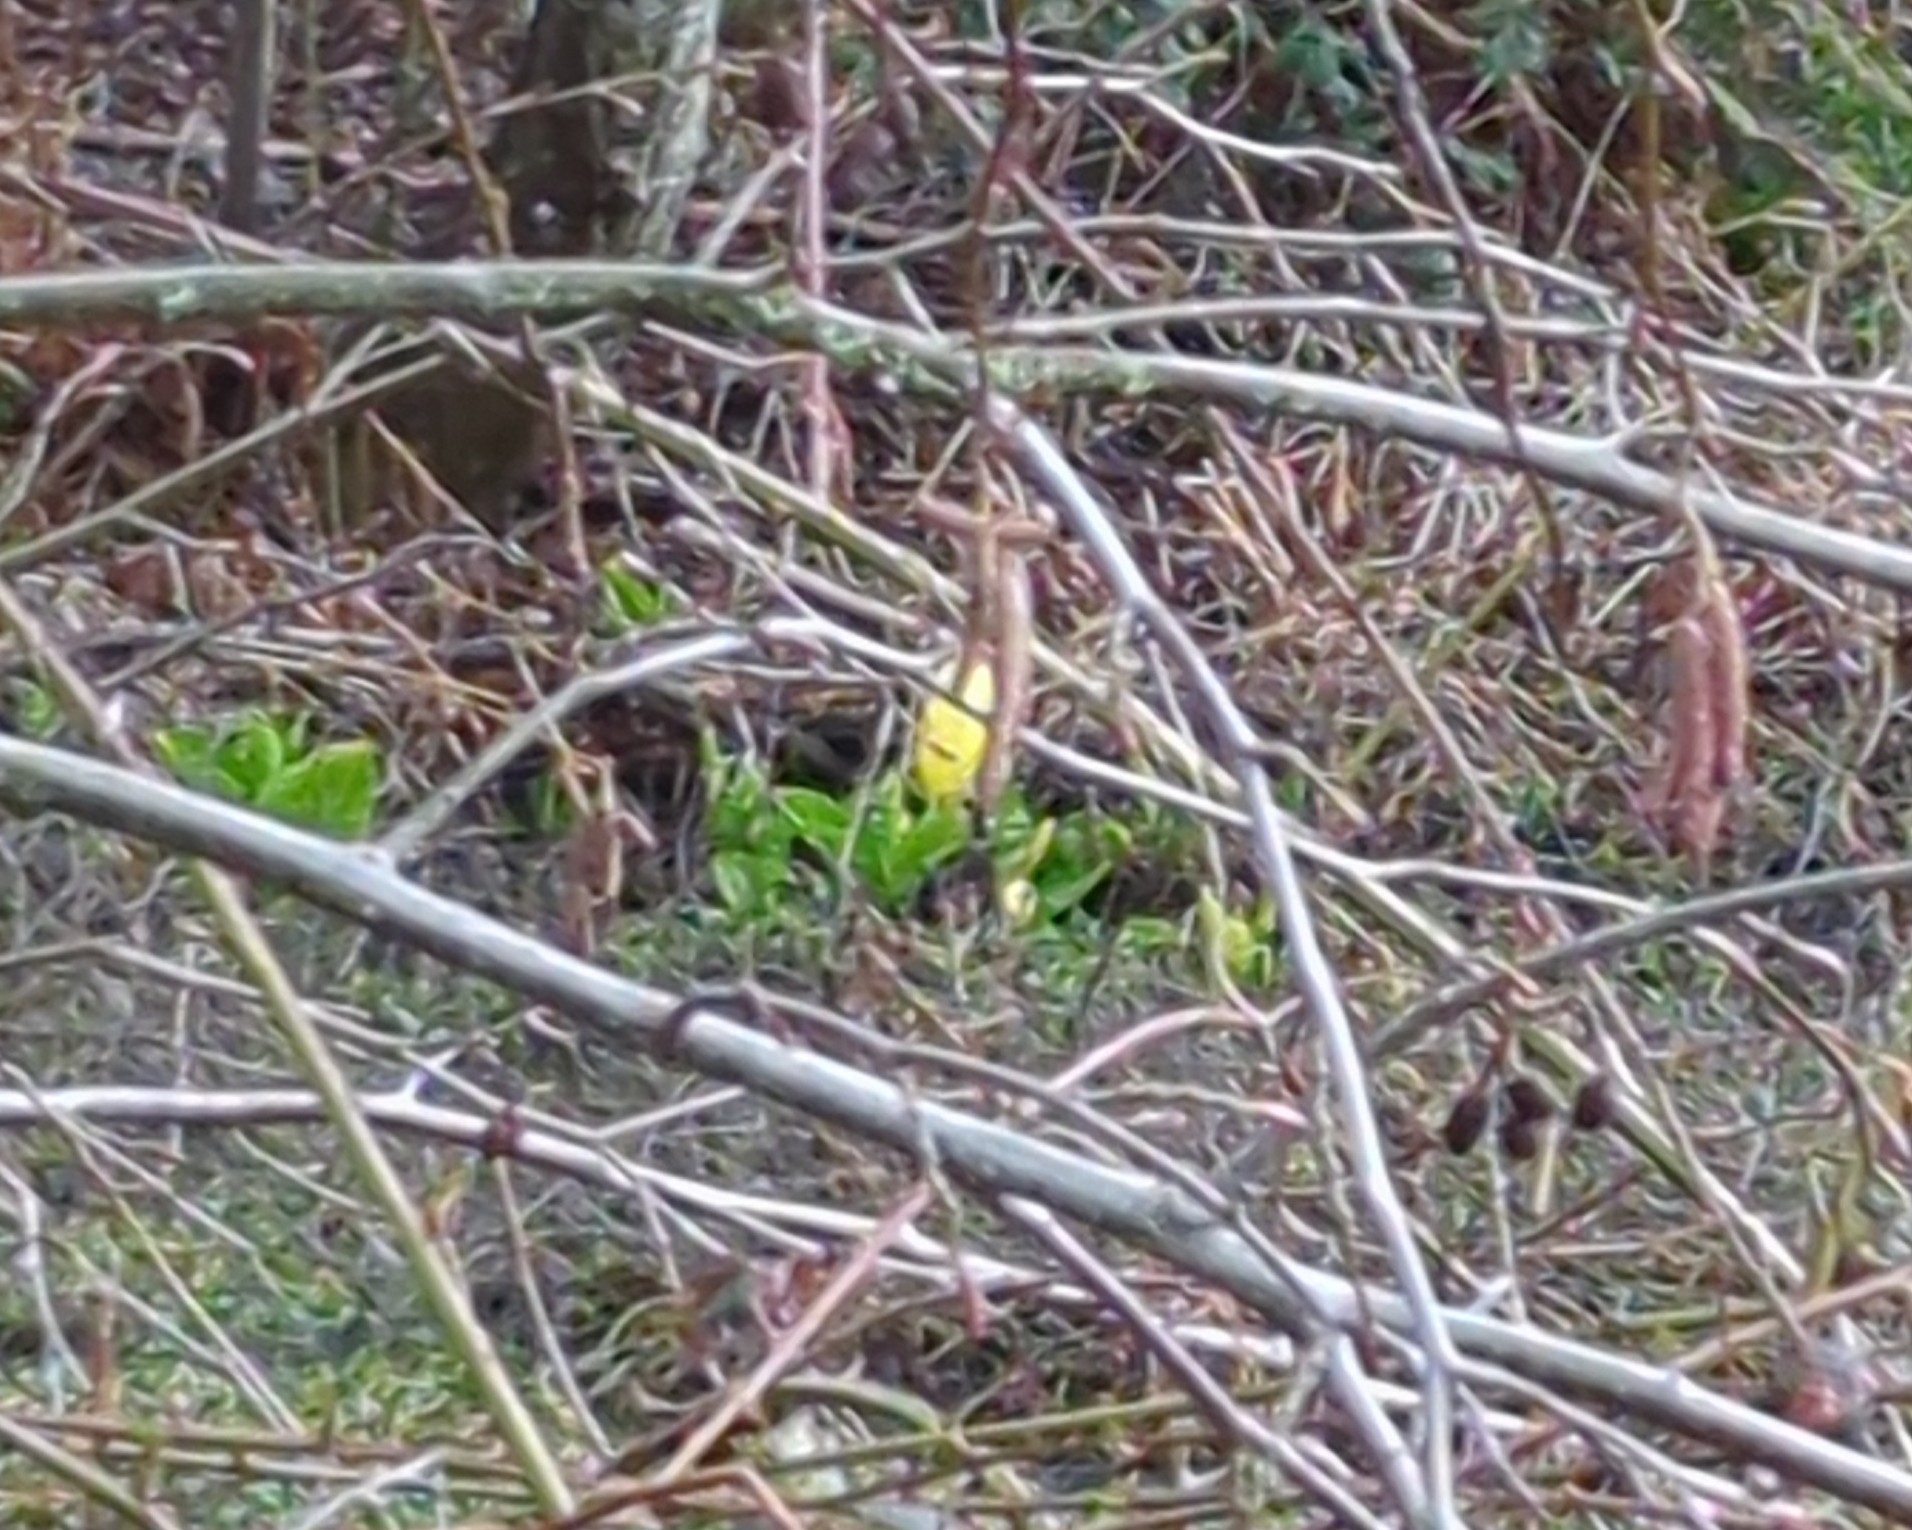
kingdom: Plantae
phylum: Tracheophyta
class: Liliopsida
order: Alismatales
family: Araceae
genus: Lysichiton
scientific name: Lysichiton americanus
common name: American skunk cabbage
